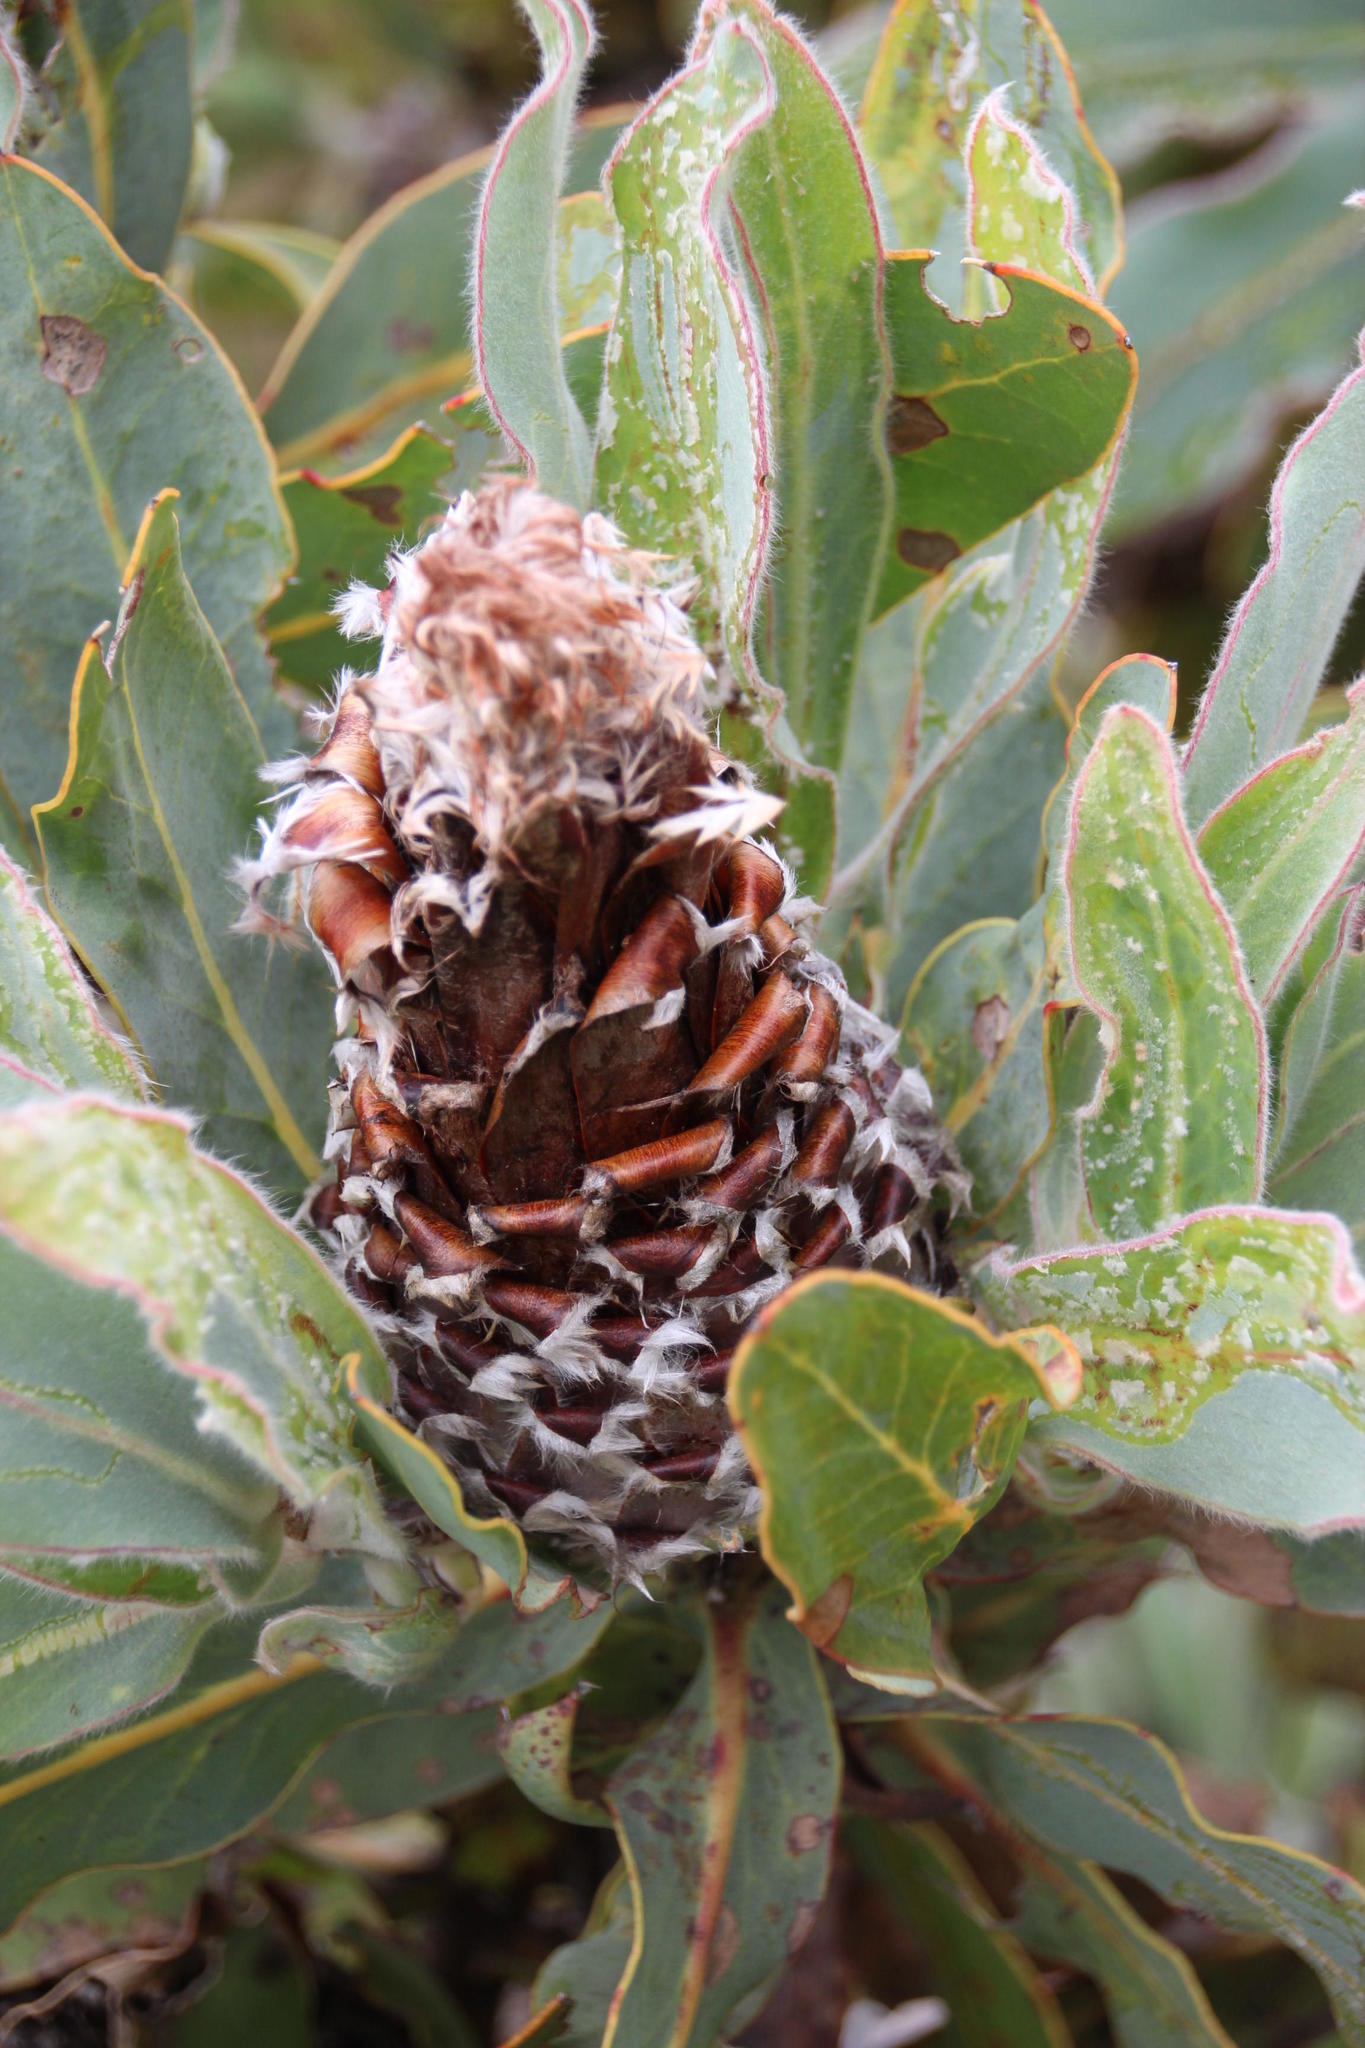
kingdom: Plantae
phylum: Tracheophyta
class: Magnoliopsida
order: Proteales
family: Proteaceae
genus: Protea
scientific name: Protea magnifica
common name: Bearded sugarbush
